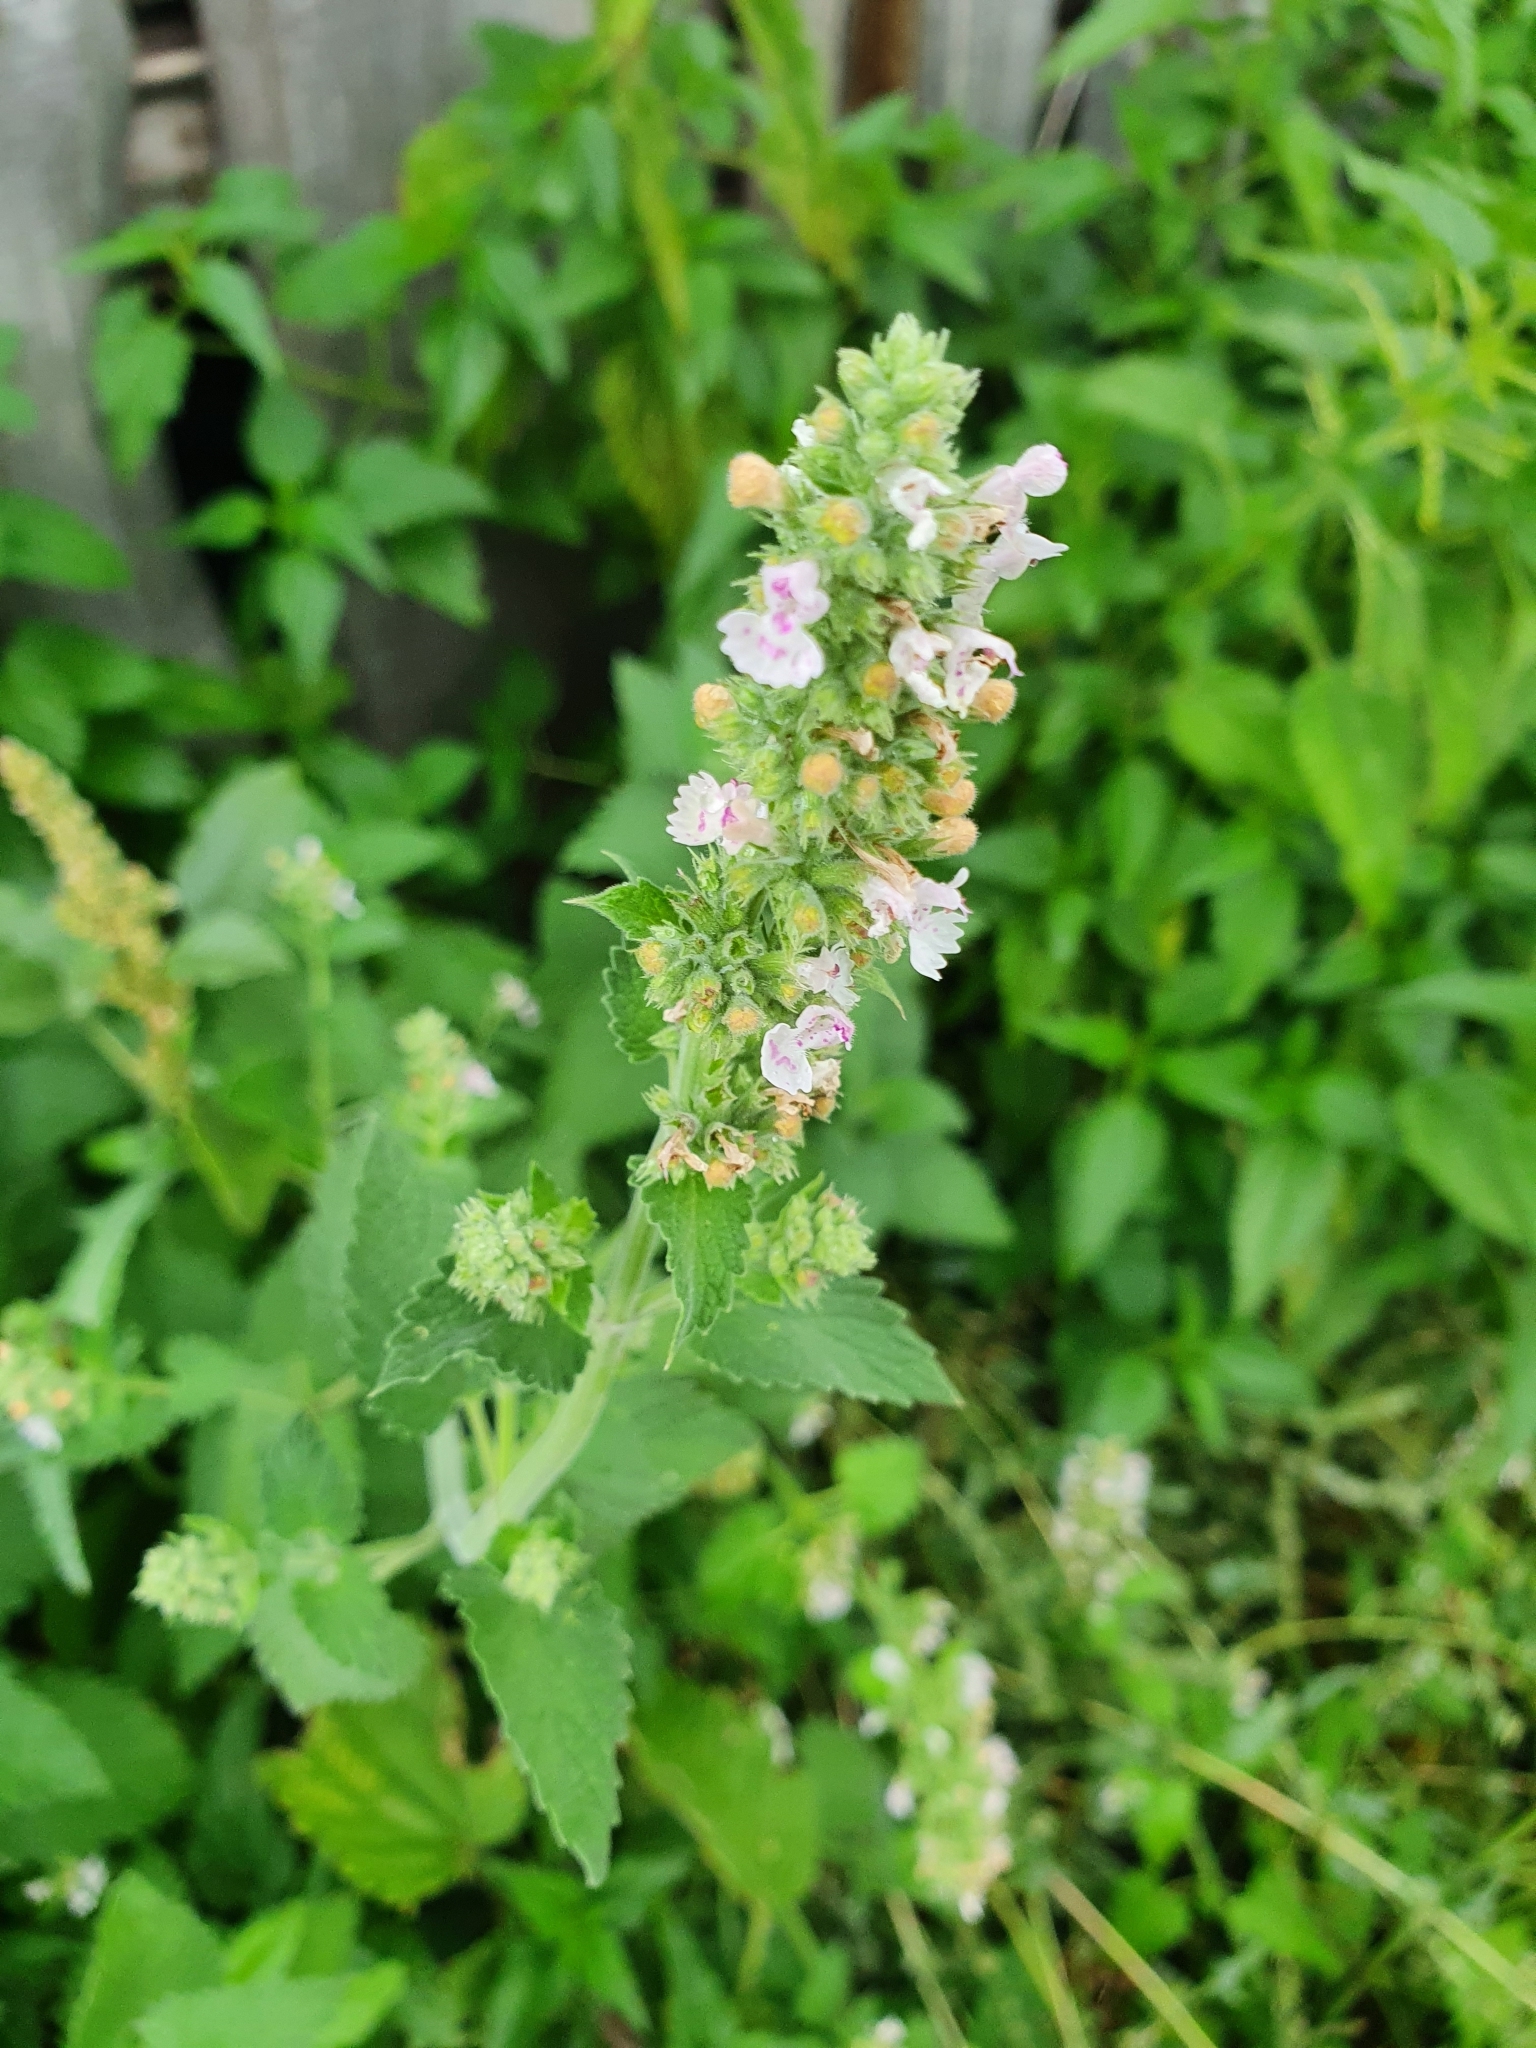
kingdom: Plantae
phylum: Tracheophyta
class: Magnoliopsida
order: Lamiales
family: Lamiaceae
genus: Nepeta
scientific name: Nepeta cataria
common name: Catnip
